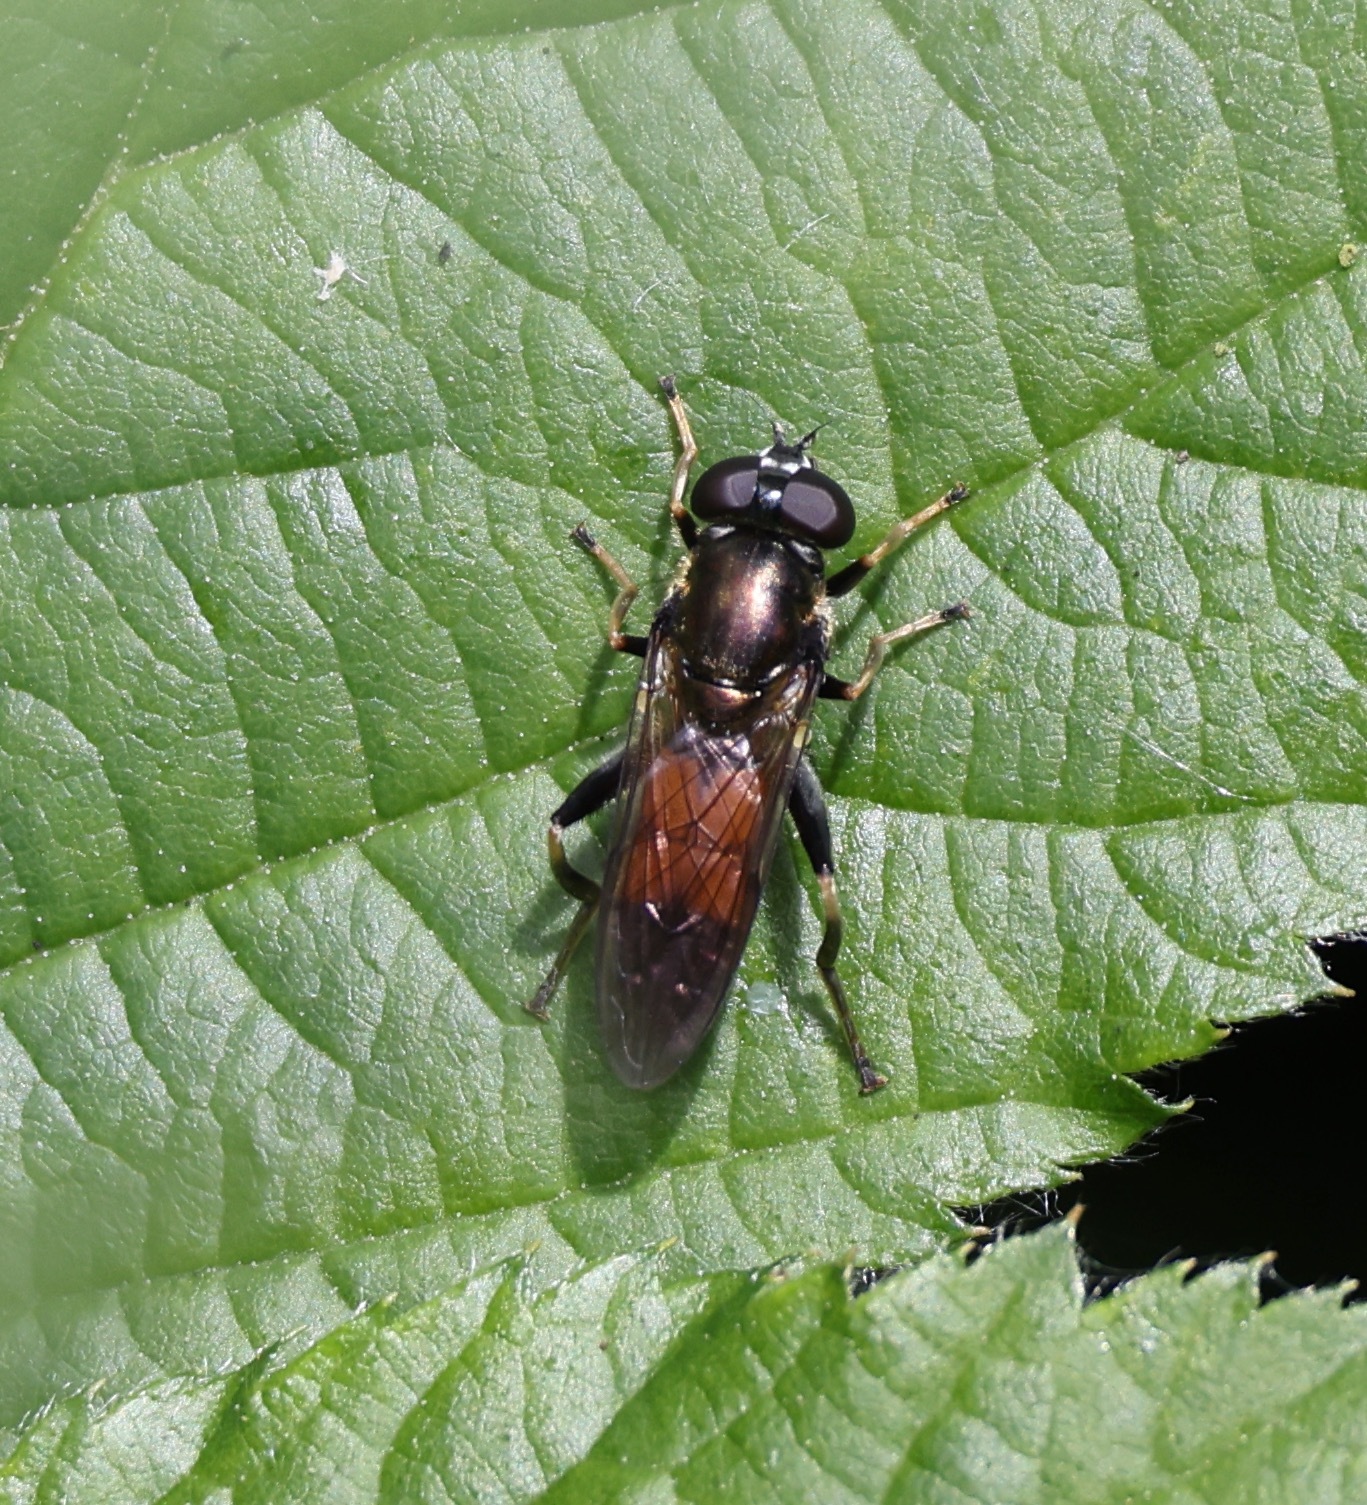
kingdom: Animalia
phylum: Arthropoda
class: Insecta
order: Diptera
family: Syrphidae
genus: Xylota
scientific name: Xylota segnis
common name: Brown-toed forest fly
